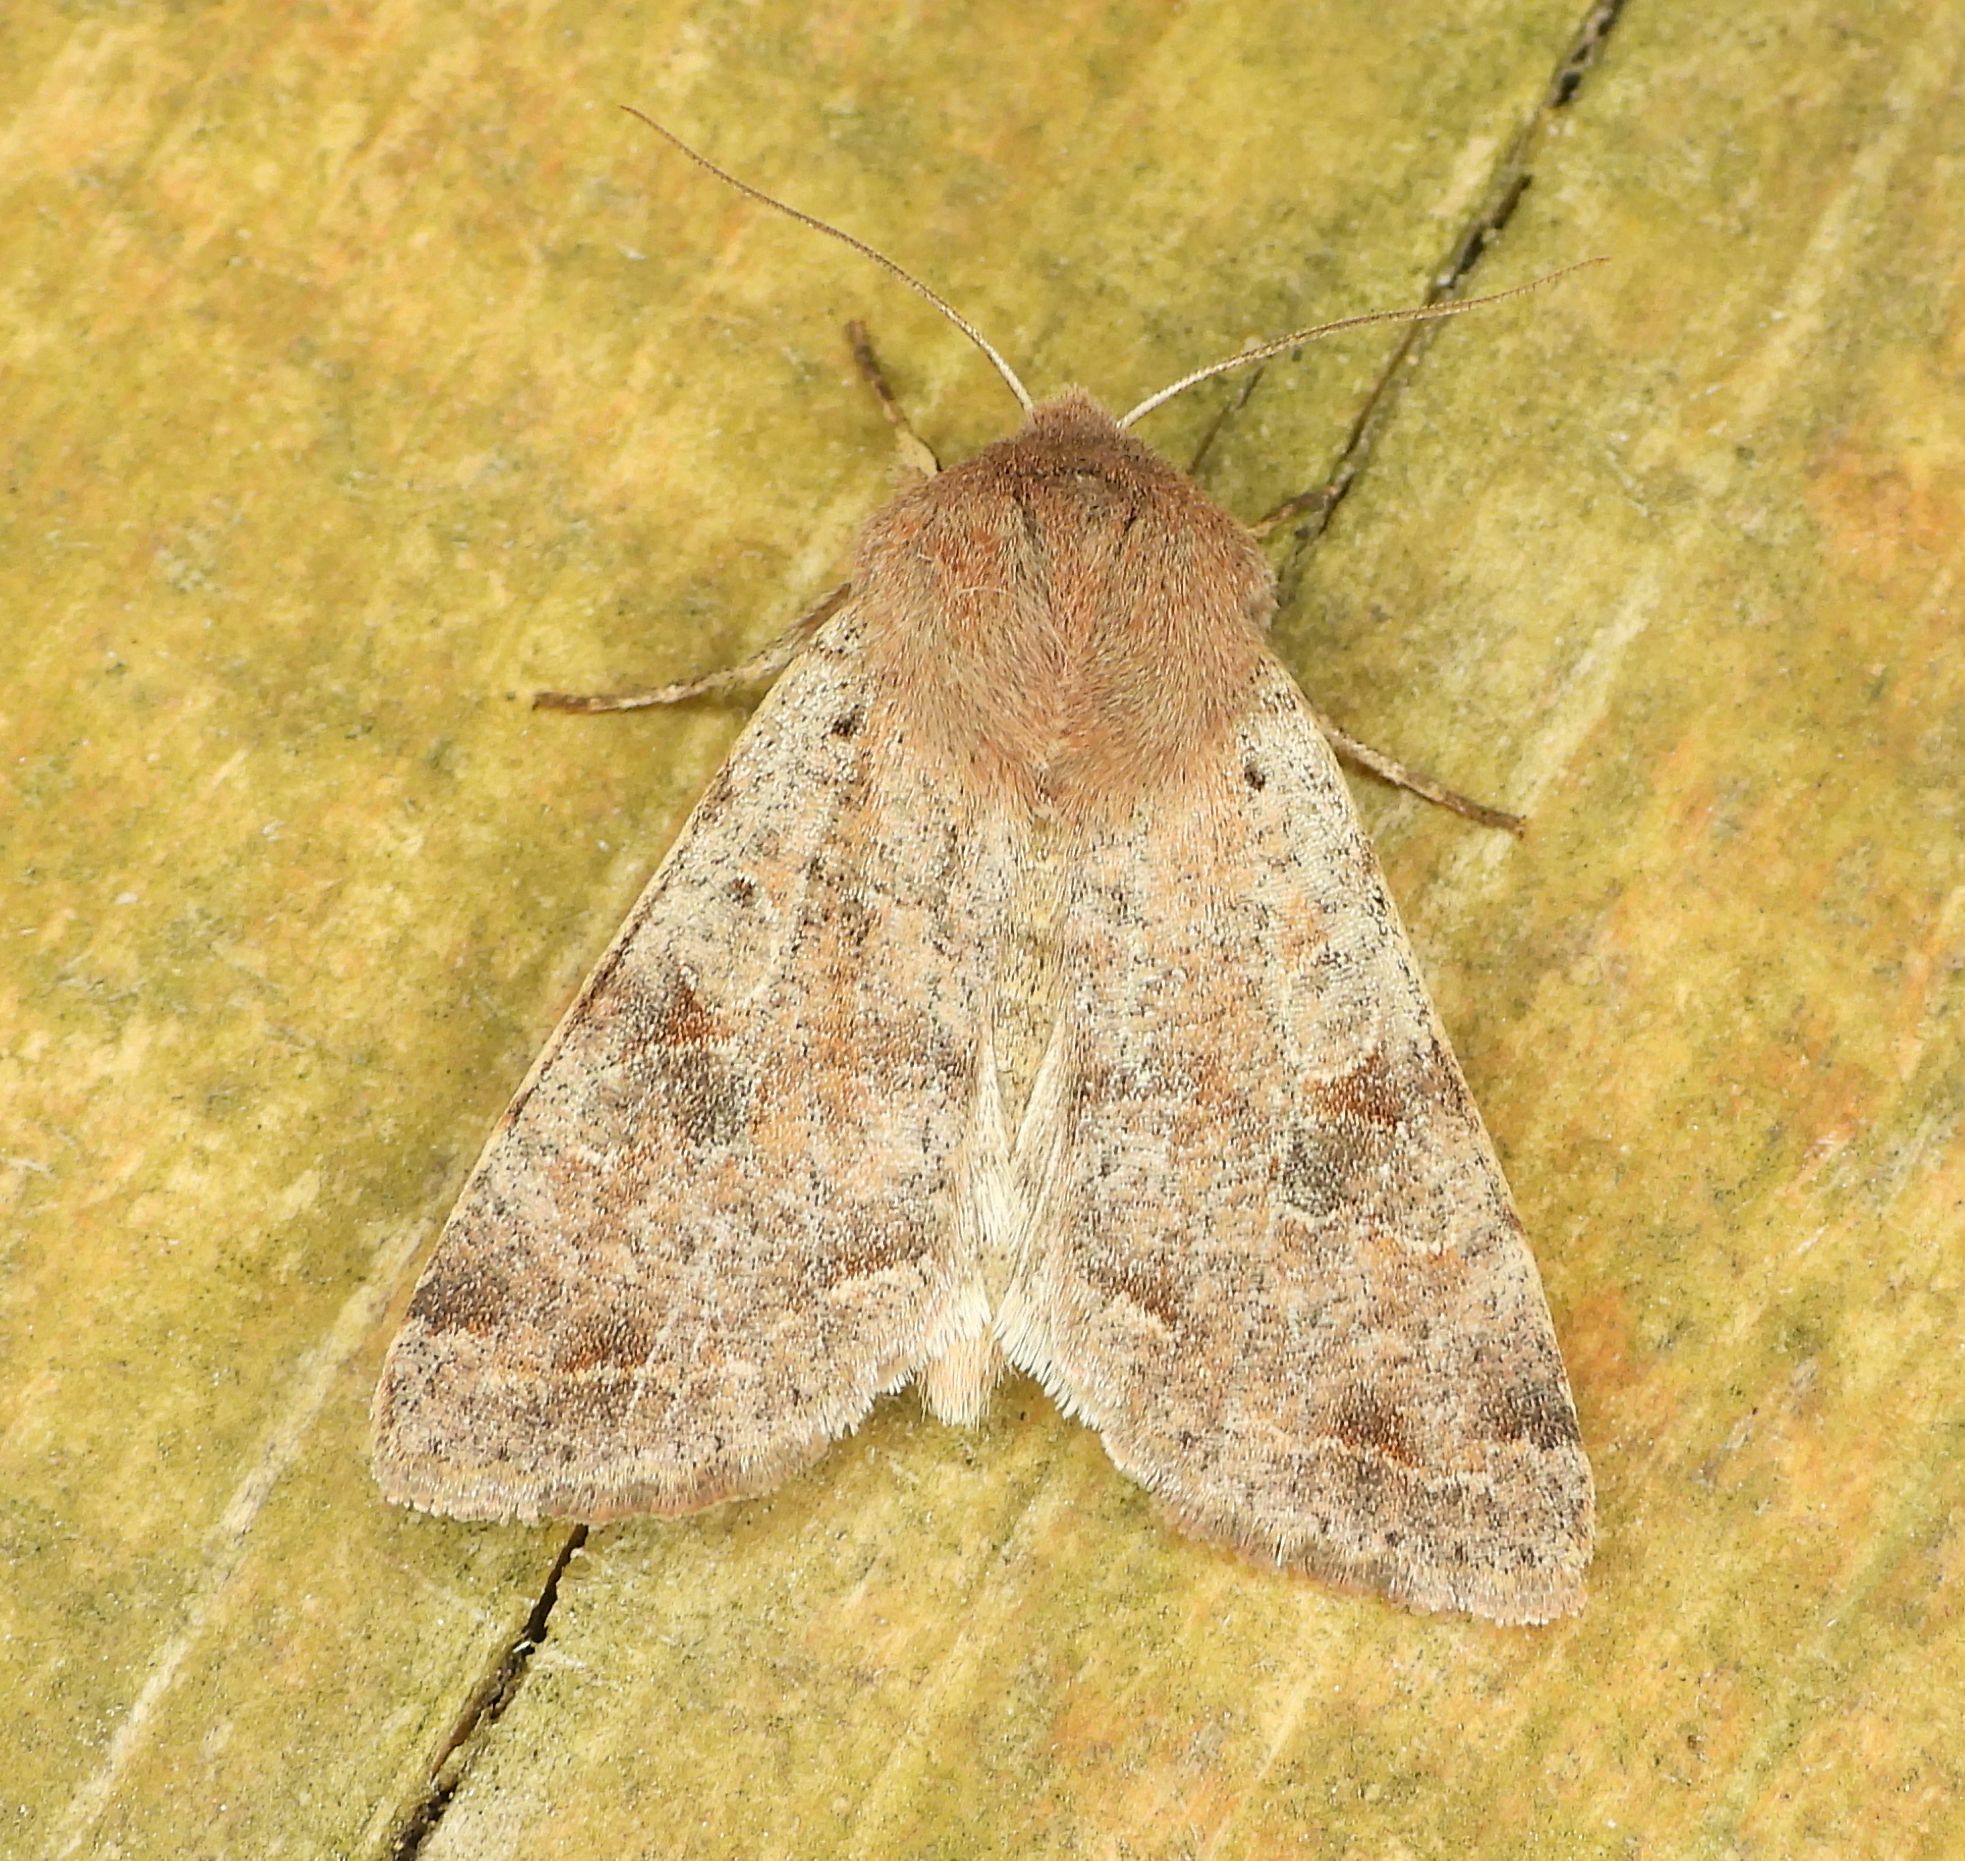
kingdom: Animalia
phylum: Arthropoda
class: Insecta
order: Lepidoptera
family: Noctuidae
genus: Orthosia
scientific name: Orthosia hibisci
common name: Green fruitworm
